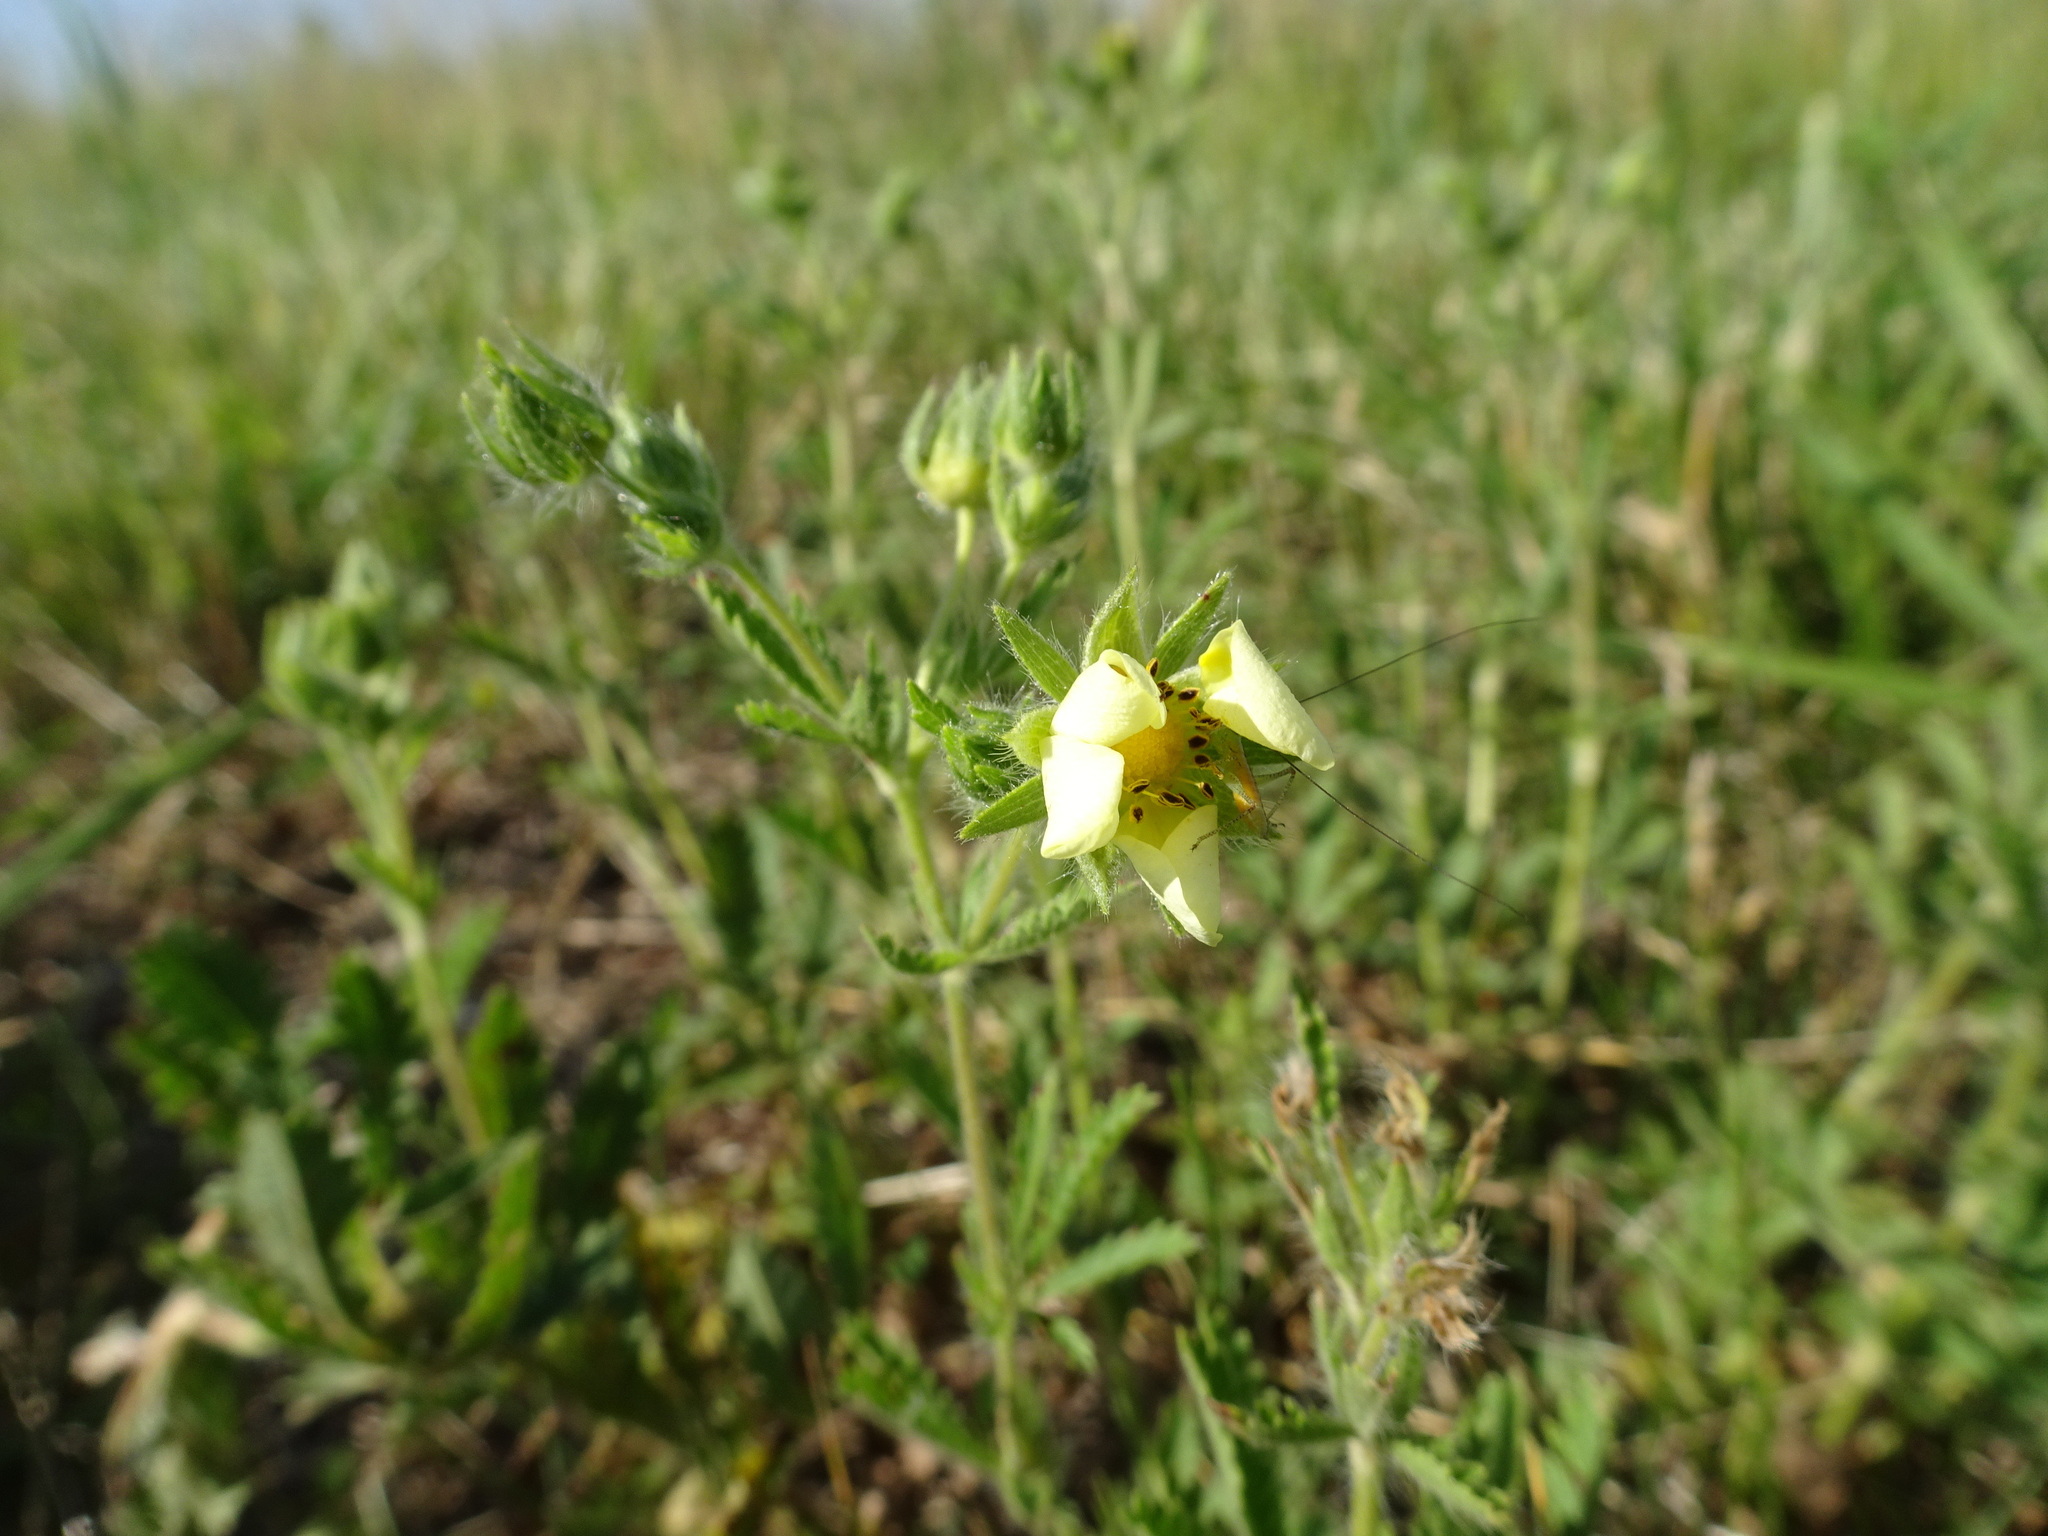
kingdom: Plantae
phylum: Tracheophyta
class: Magnoliopsida
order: Rosales
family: Rosaceae
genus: Potentilla
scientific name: Potentilla recta
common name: Sulphur cinquefoil
